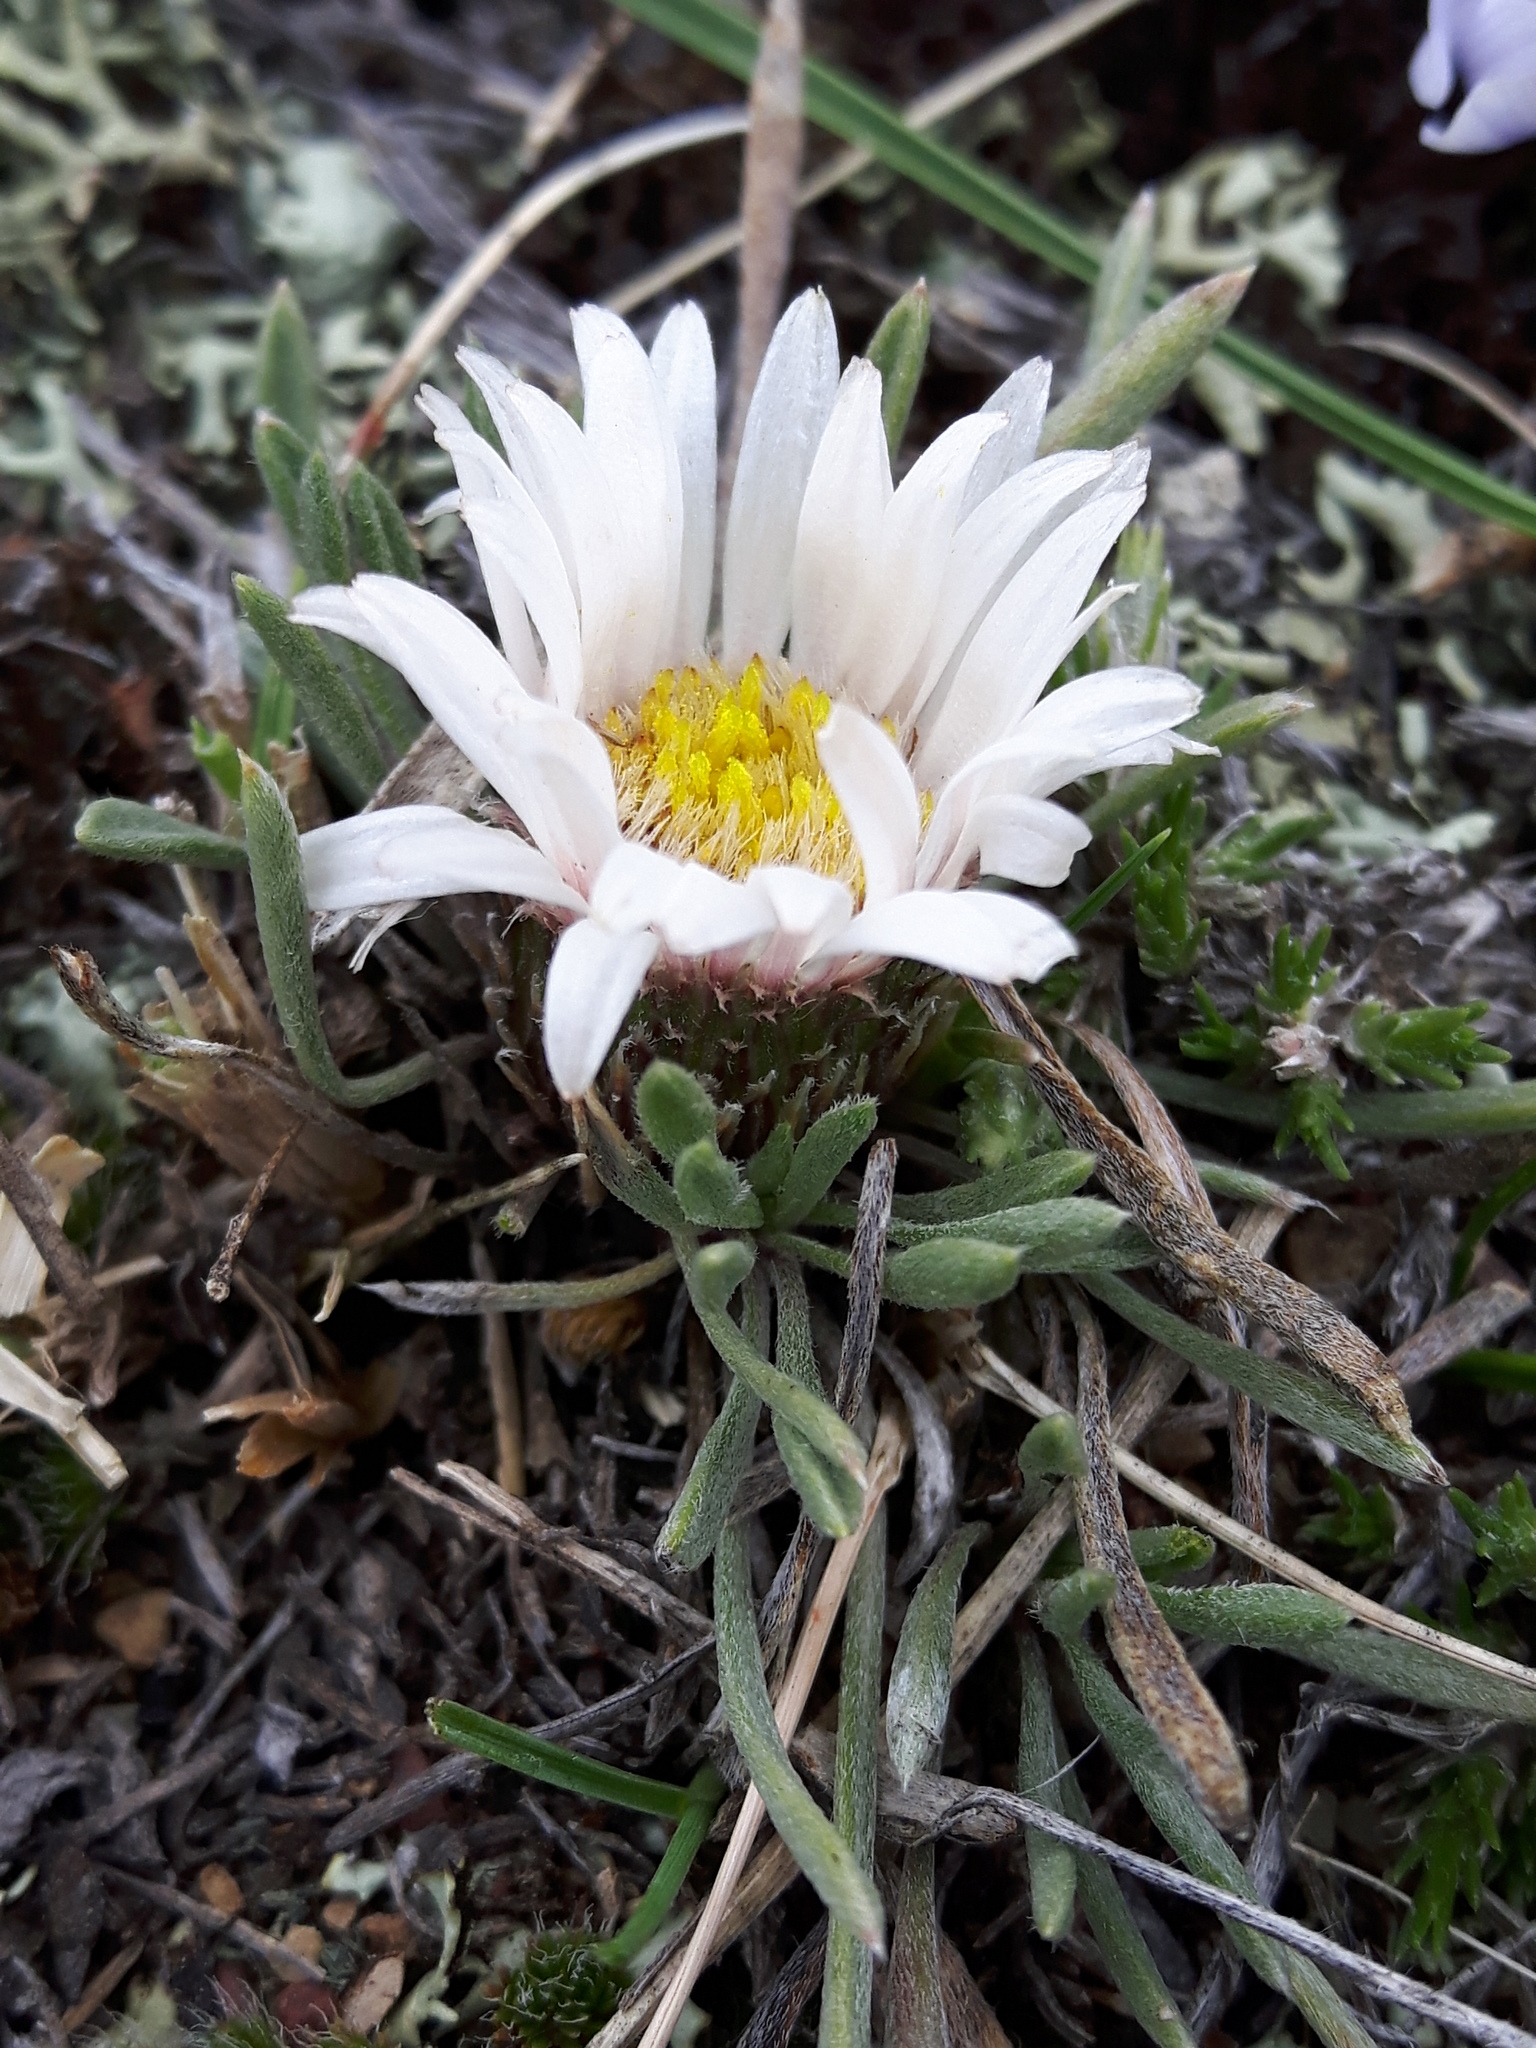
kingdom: Plantae
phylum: Tracheophyta
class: Magnoliopsida
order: Asterales
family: Asteraceae
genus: Townsendia
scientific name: Townsendia hookeri
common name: Hooker's townsend daisy
